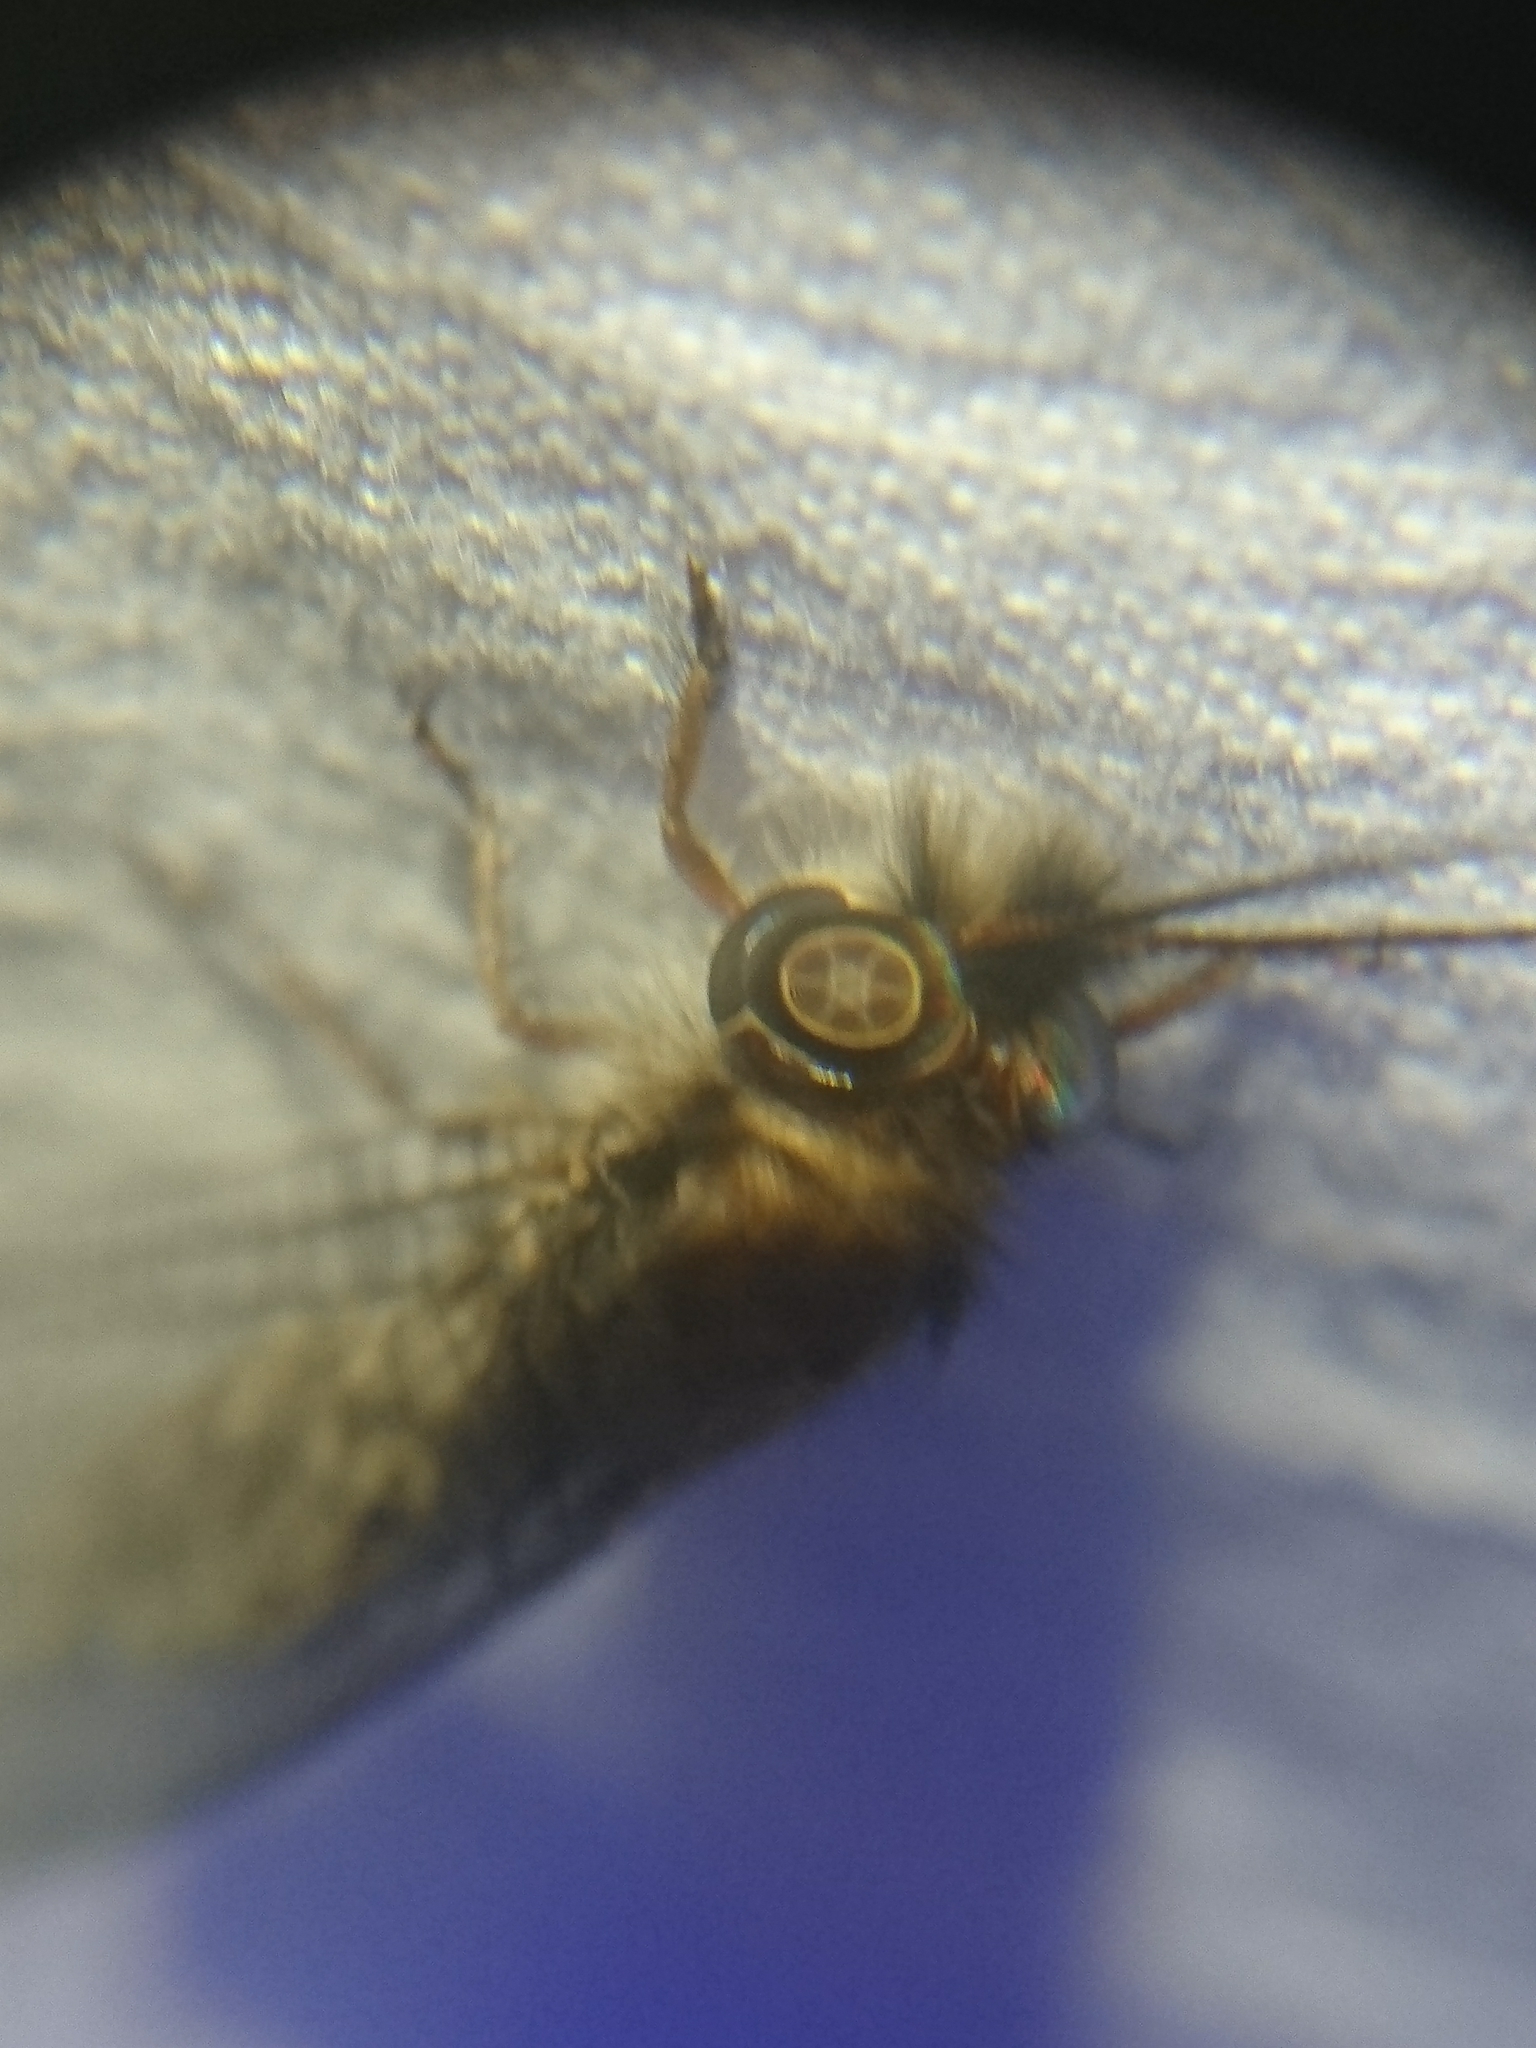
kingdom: Animalia
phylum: Arthropoda
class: Insecta
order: Neuroptera
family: Ascalaphidae
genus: Ululodes
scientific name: Ululodes macleayanus
